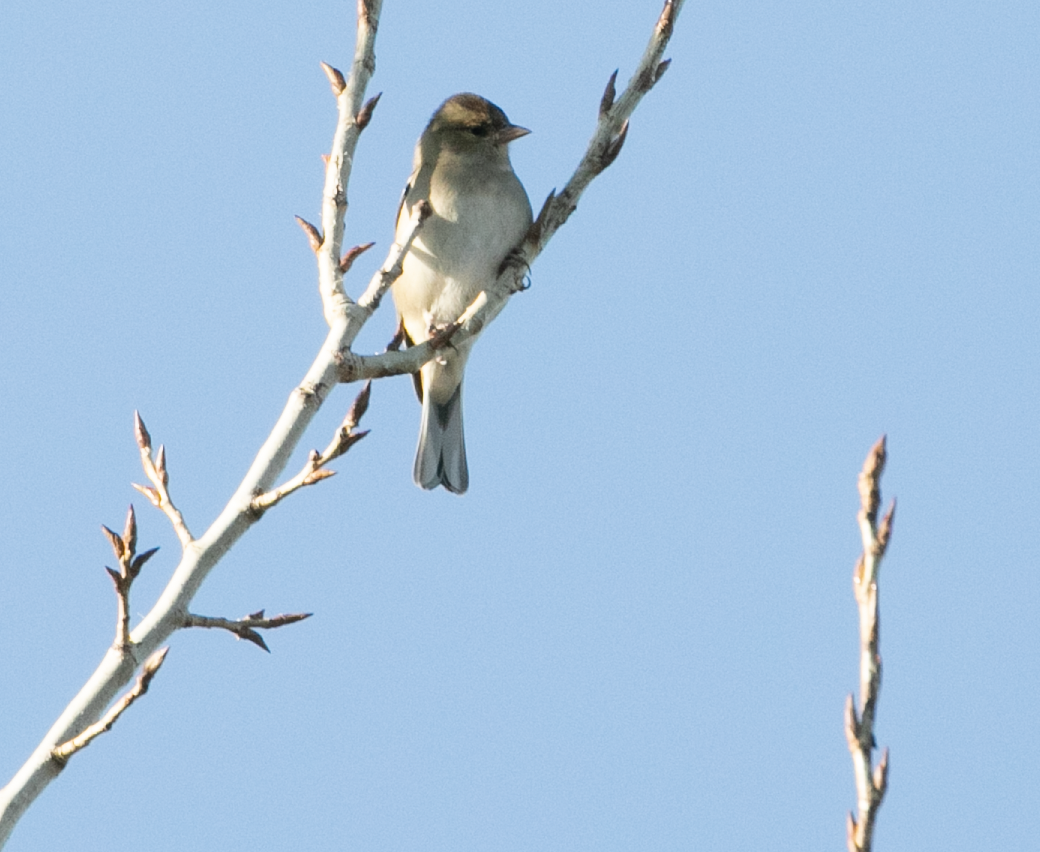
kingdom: Animalia
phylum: Chordata
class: Aves
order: Passeriformes
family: Fringillidae
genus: Fringilla
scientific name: Fringilla coelebs
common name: Common chaffinch
